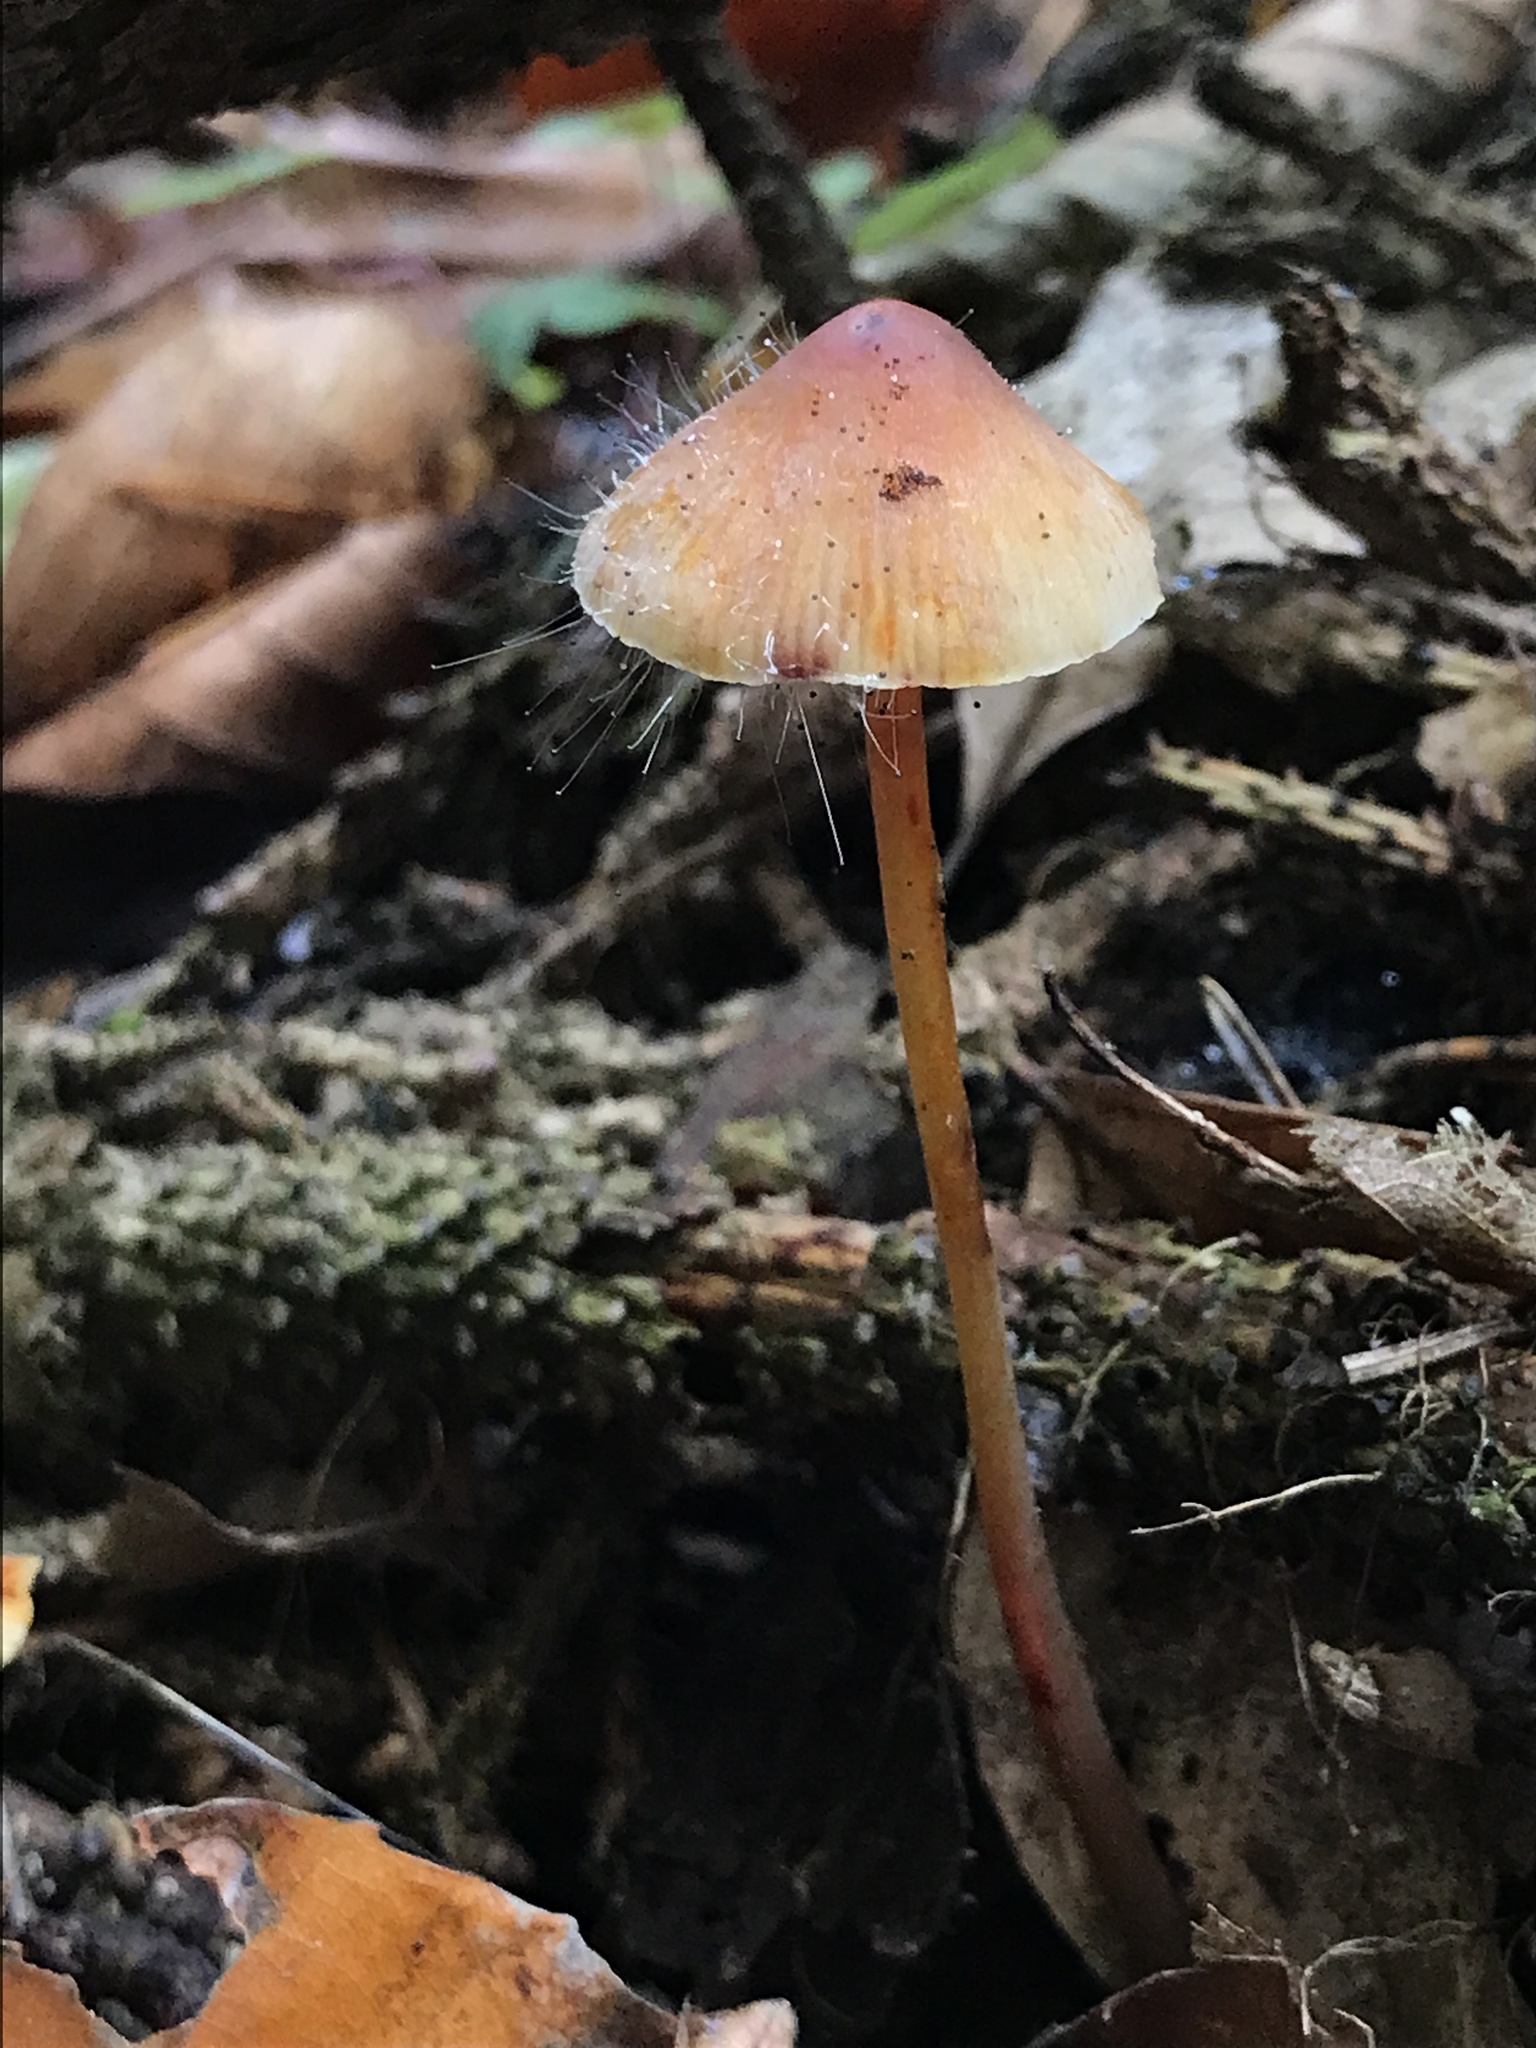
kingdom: Fungi
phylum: Mucoromycota
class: Mucoromycetes
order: Mucorales
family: Phycomycetaceae
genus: Spinellus
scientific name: Spinellus fusiger
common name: Bonnet mould
